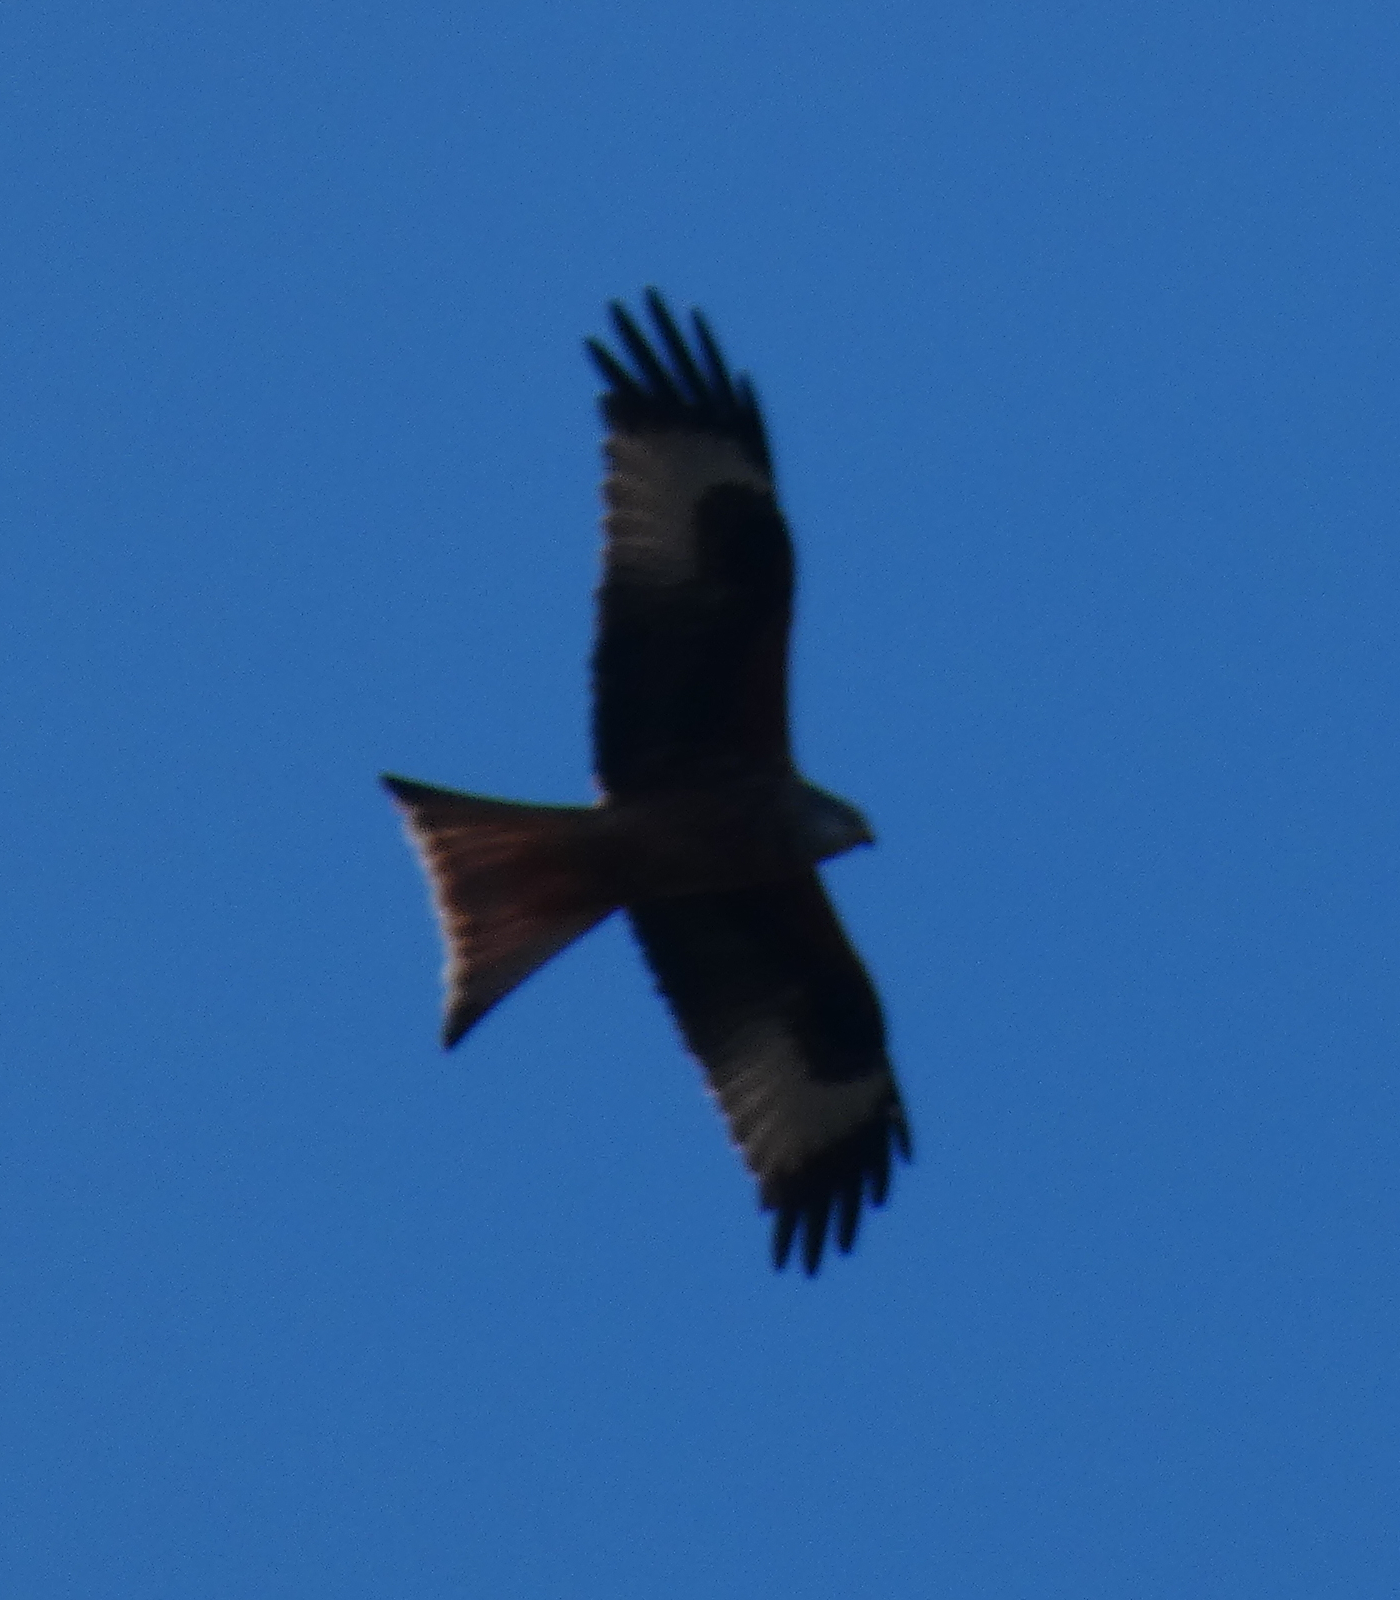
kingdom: Animalia
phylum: Chordata
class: Aves
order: Accipitriformes
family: Accipitridae
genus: Milvus
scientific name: Milvus milvus
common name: Red kite
